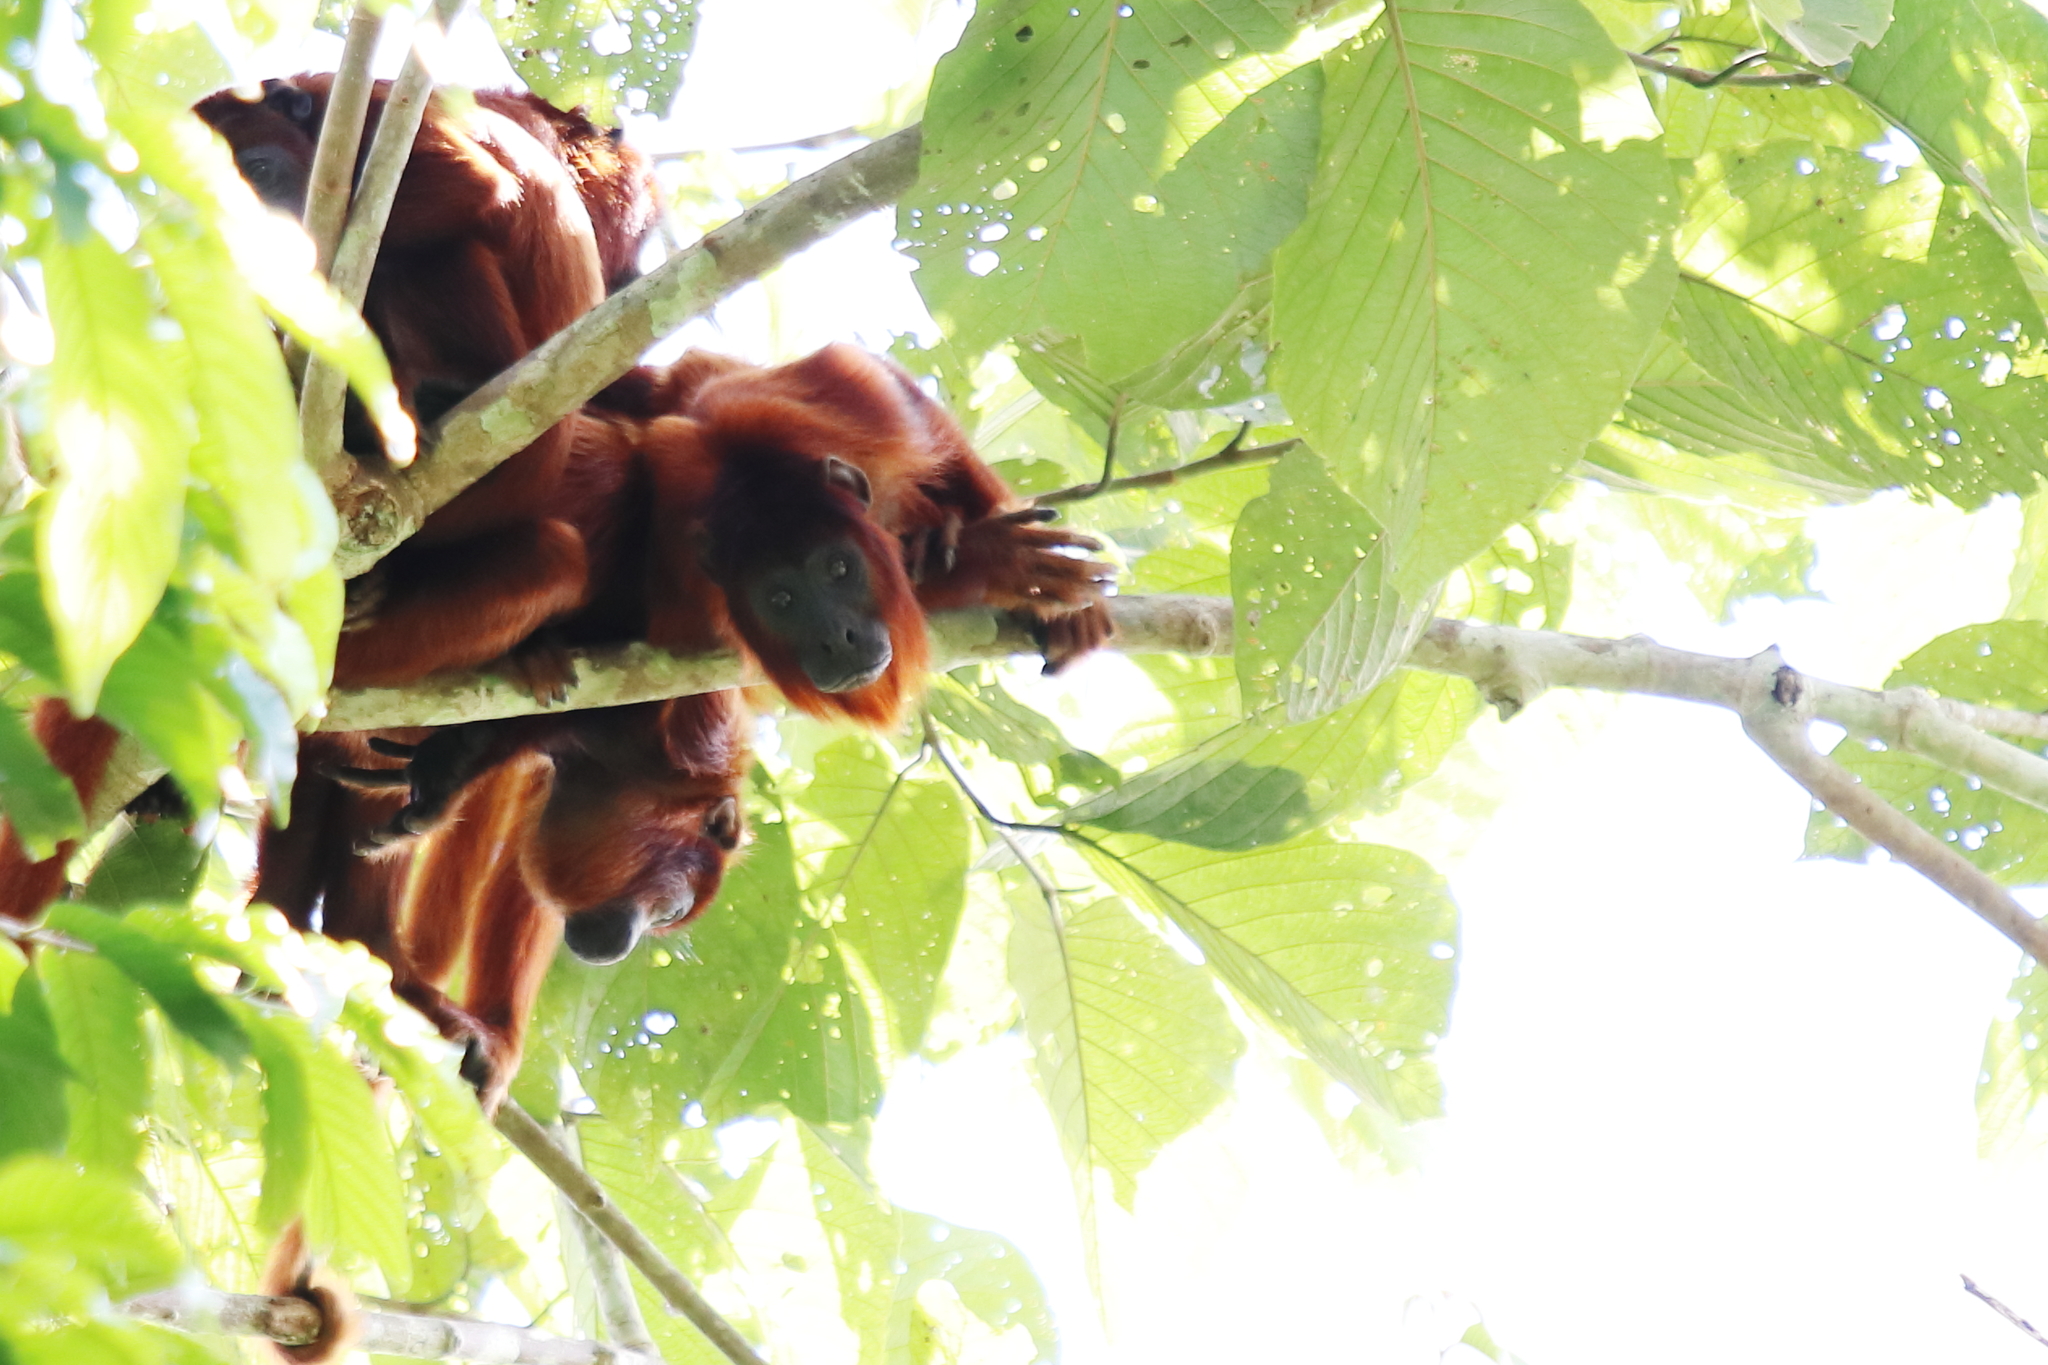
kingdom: Animalia
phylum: Chordata
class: Mammalia
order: Primates
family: Atelidae
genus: Alouatta
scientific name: Alouatta sara
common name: Bolivian red howler
